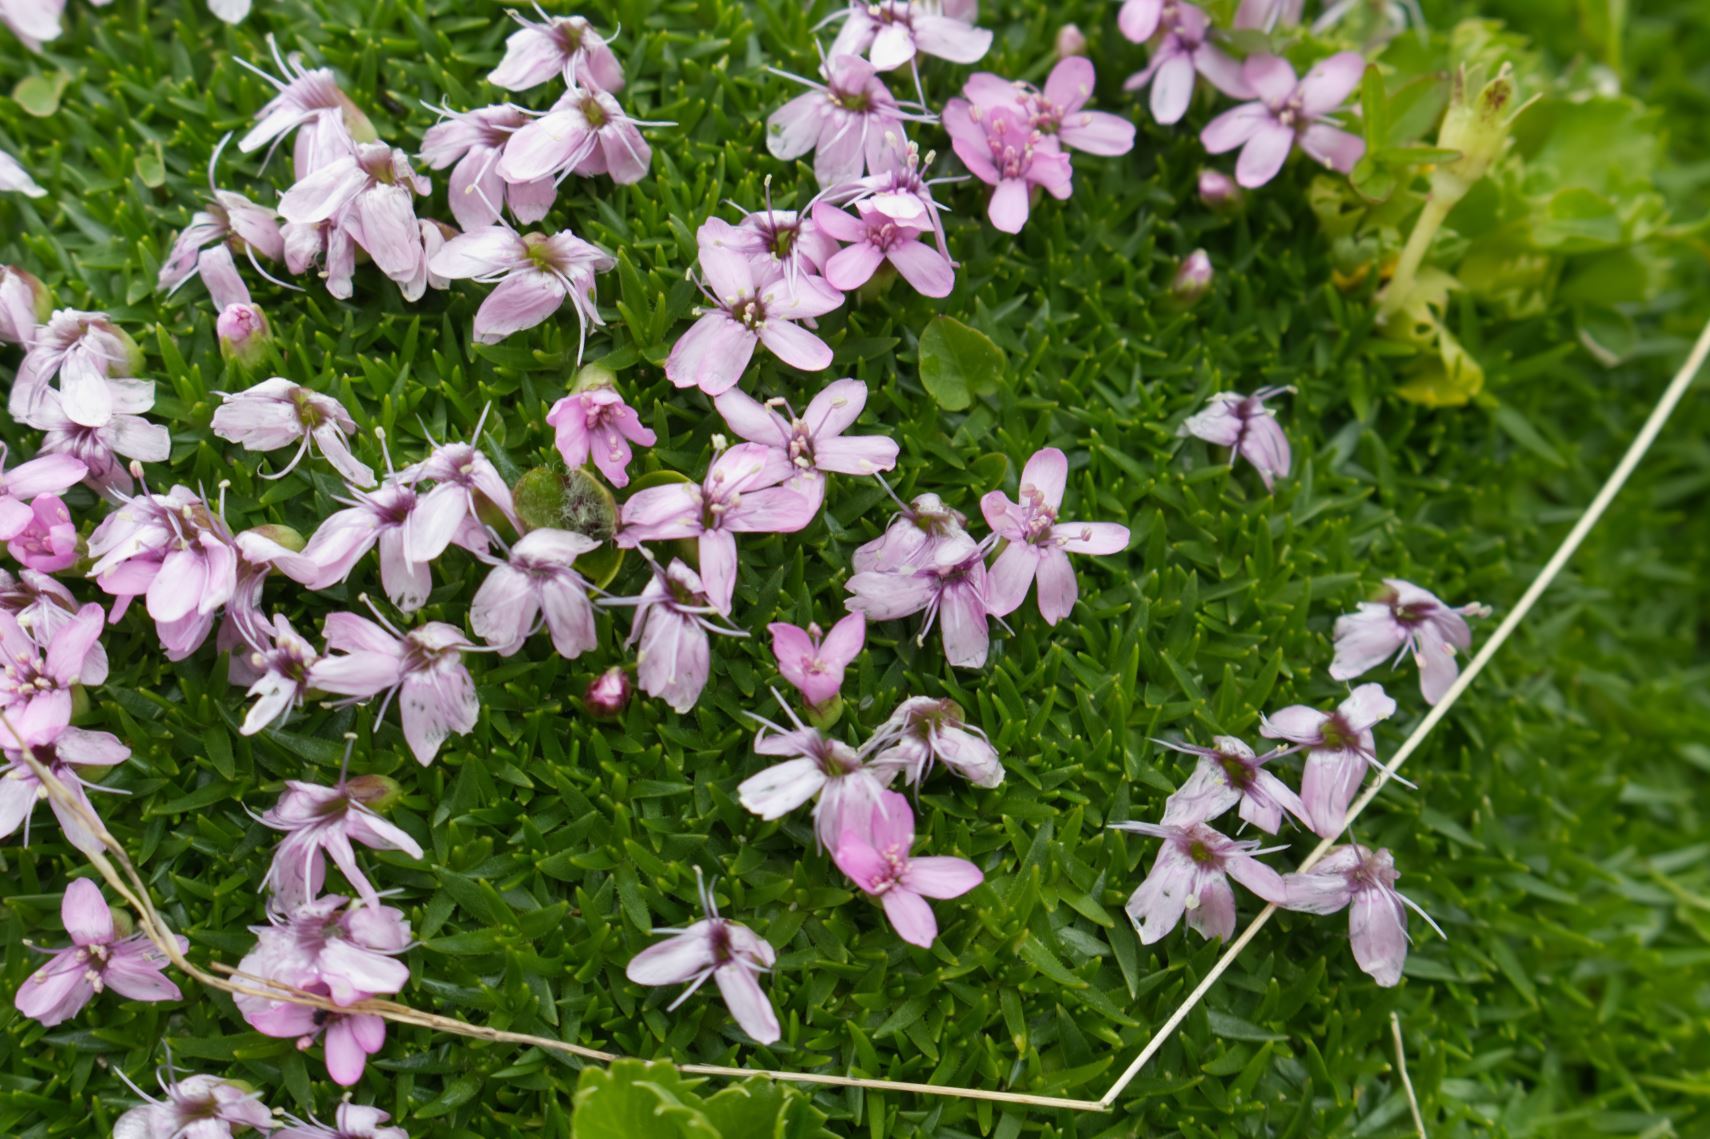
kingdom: Plantae
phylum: Tracheophyta
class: Magnoliopsida
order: Caryophyllales
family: Caryophyllaceae
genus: Silene
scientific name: Silene acaulis
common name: Moss campion
